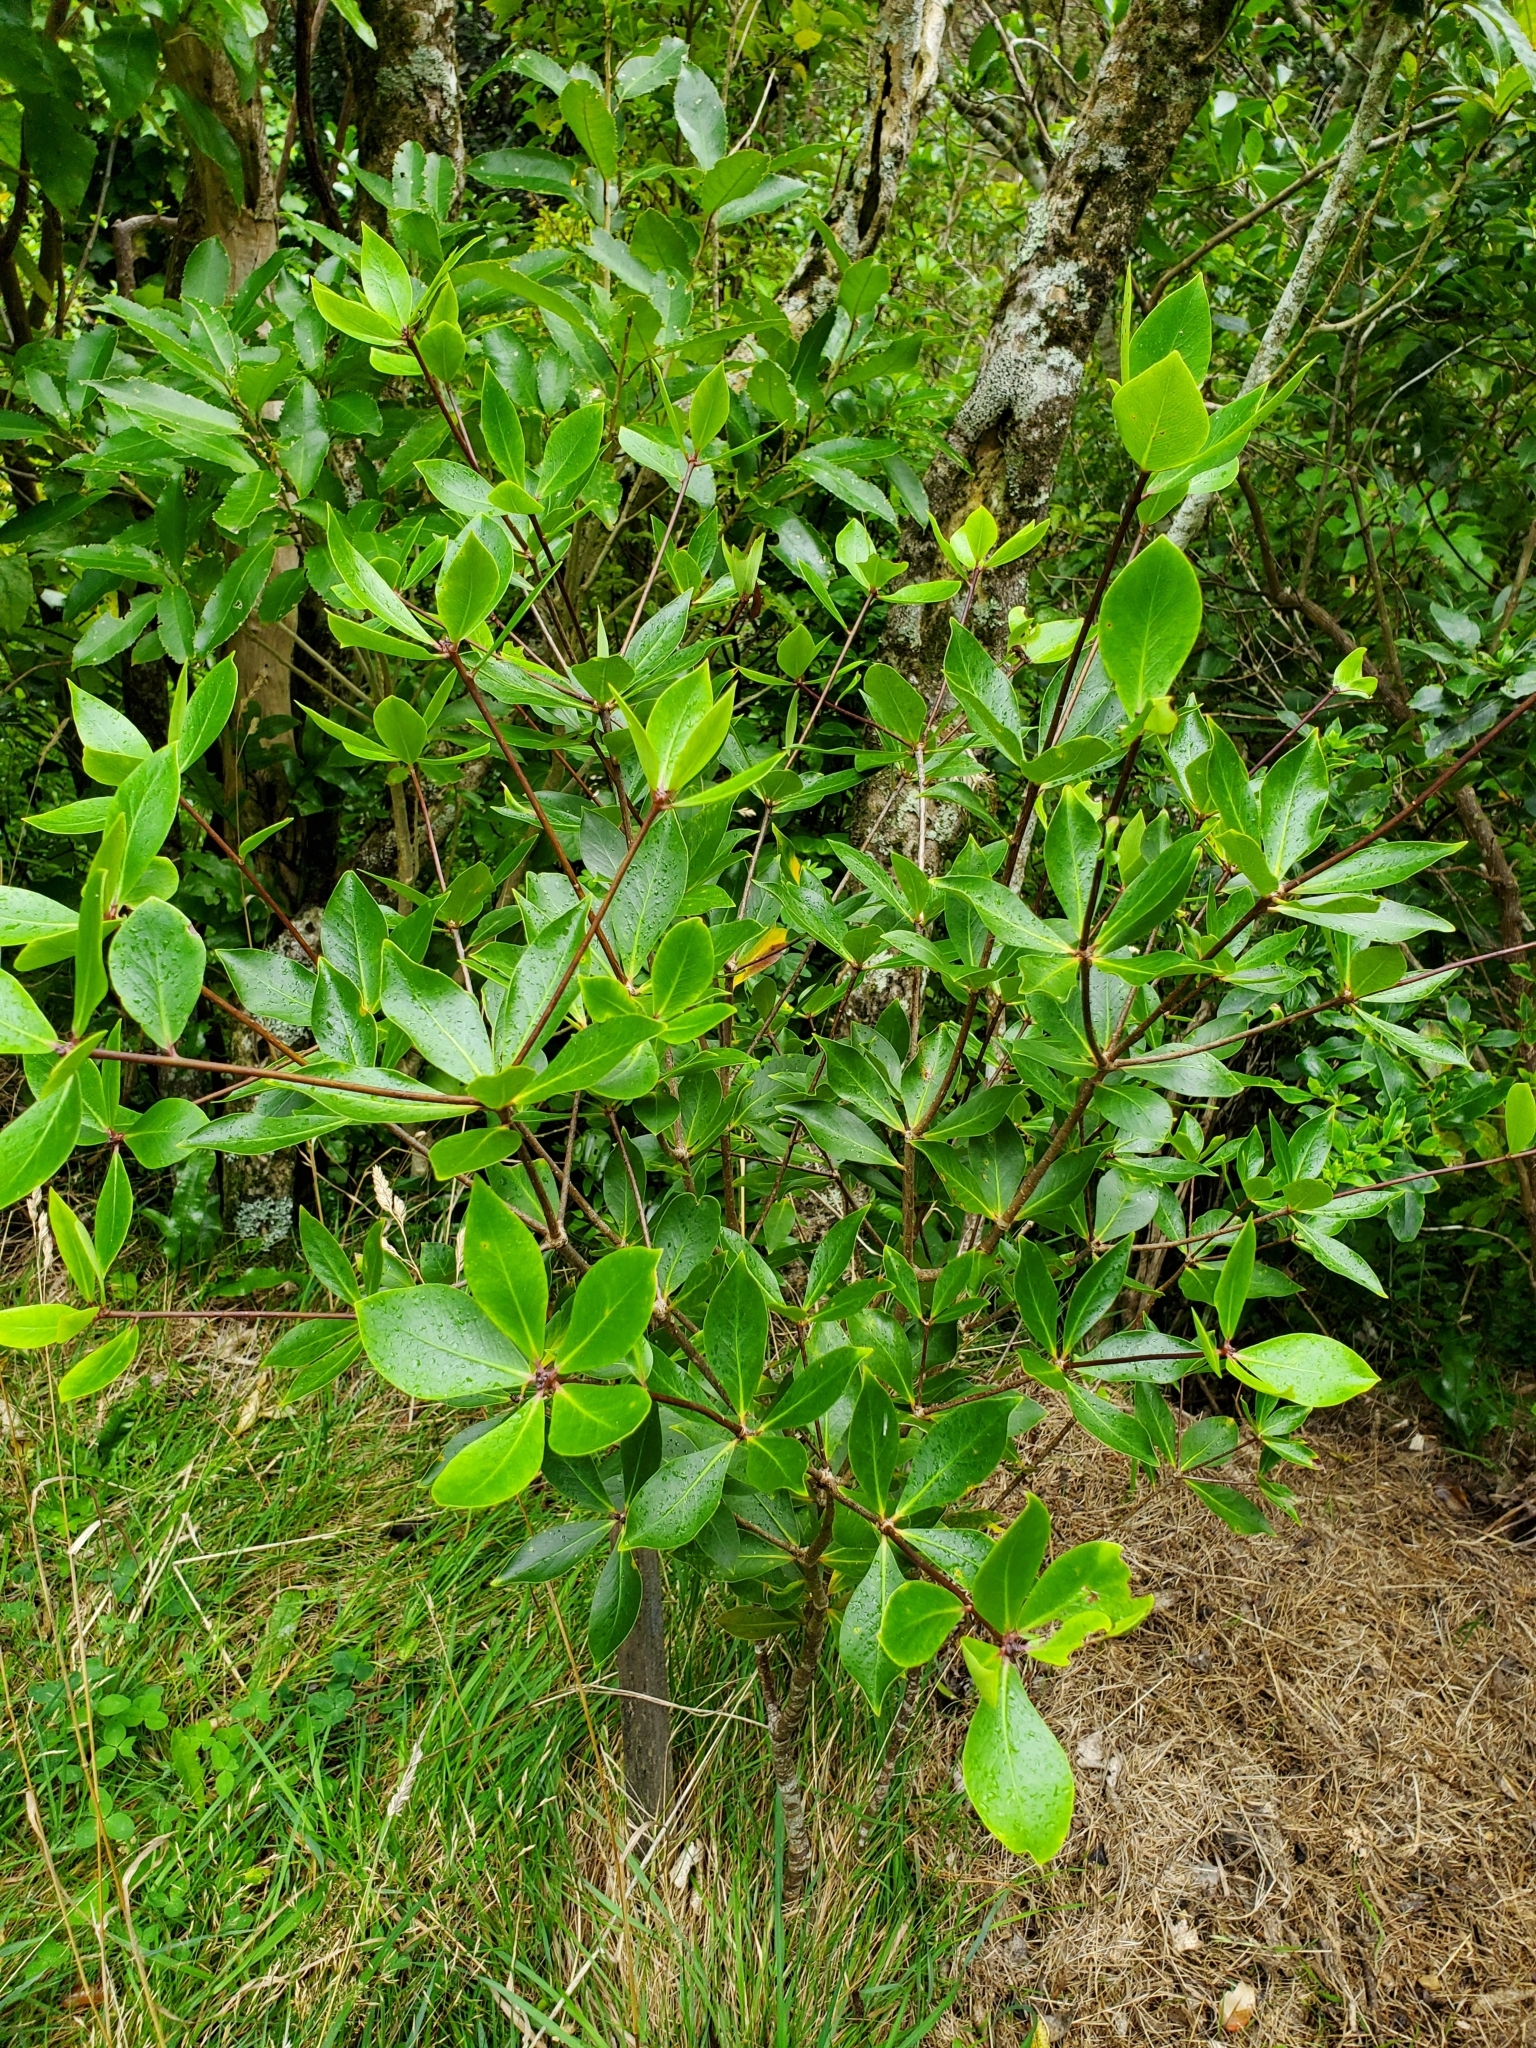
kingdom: Plantae
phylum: Tracheophyta
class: Magnoliopsida
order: Apiales
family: Pittosporaceae
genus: Pittosporum
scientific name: Pittosporum cornifolium
